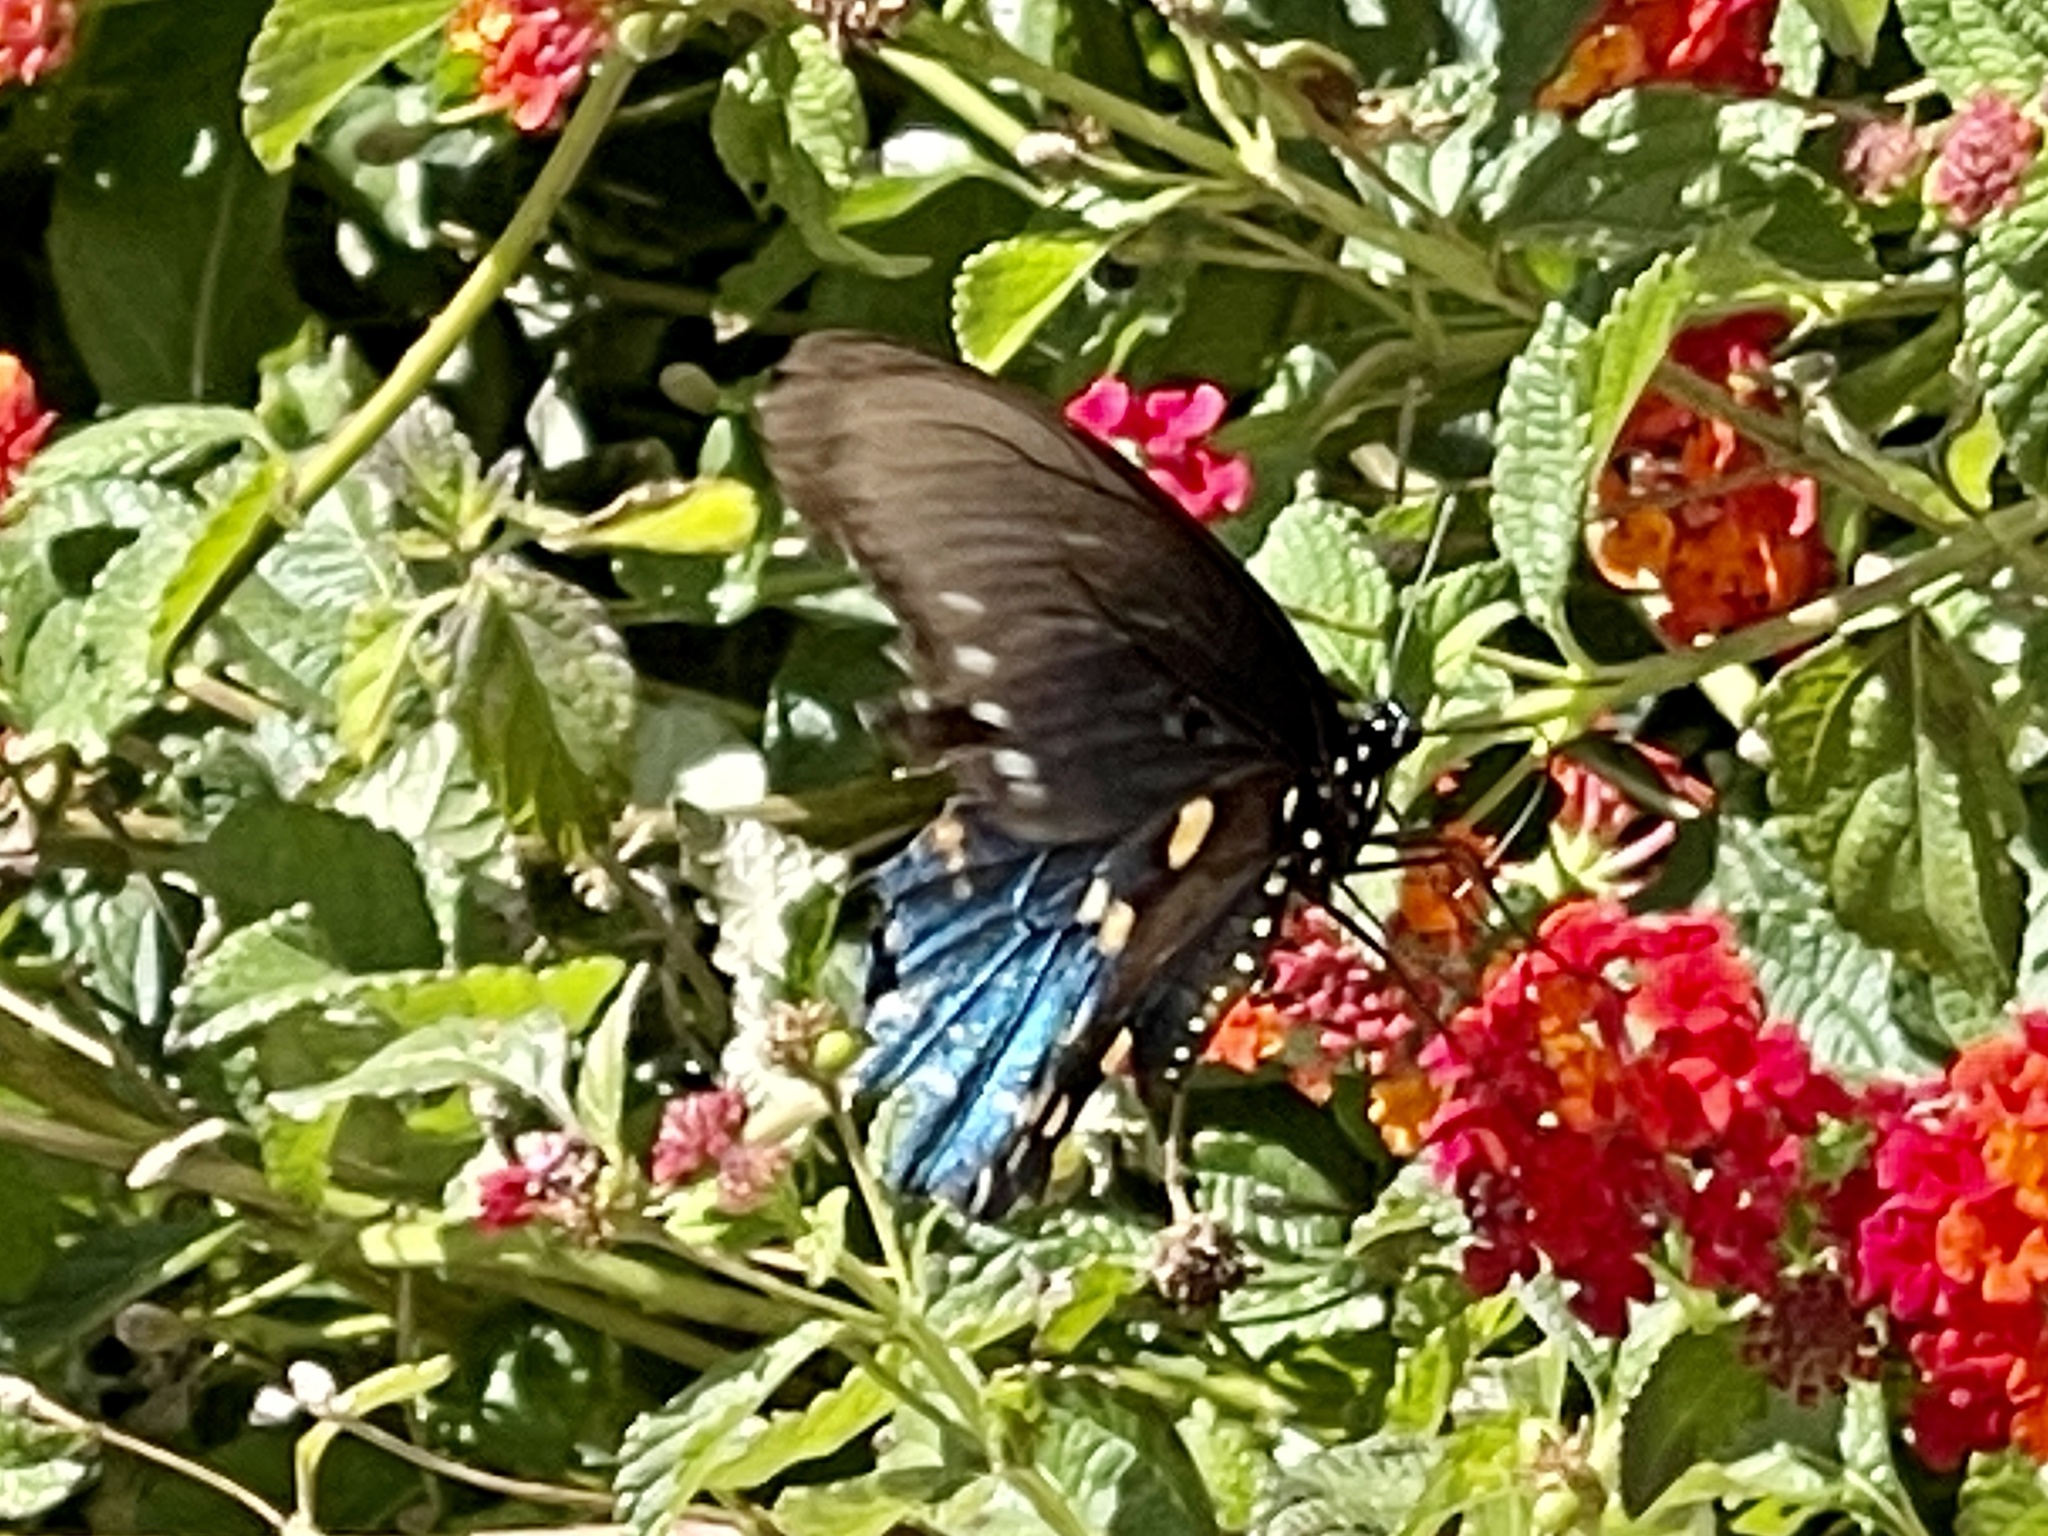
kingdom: Animalia
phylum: Arthropoda
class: Insecta
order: Lepidoptera
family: Papilionidae
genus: Battus
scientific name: Battus philenor
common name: Pipevine swallowtail
